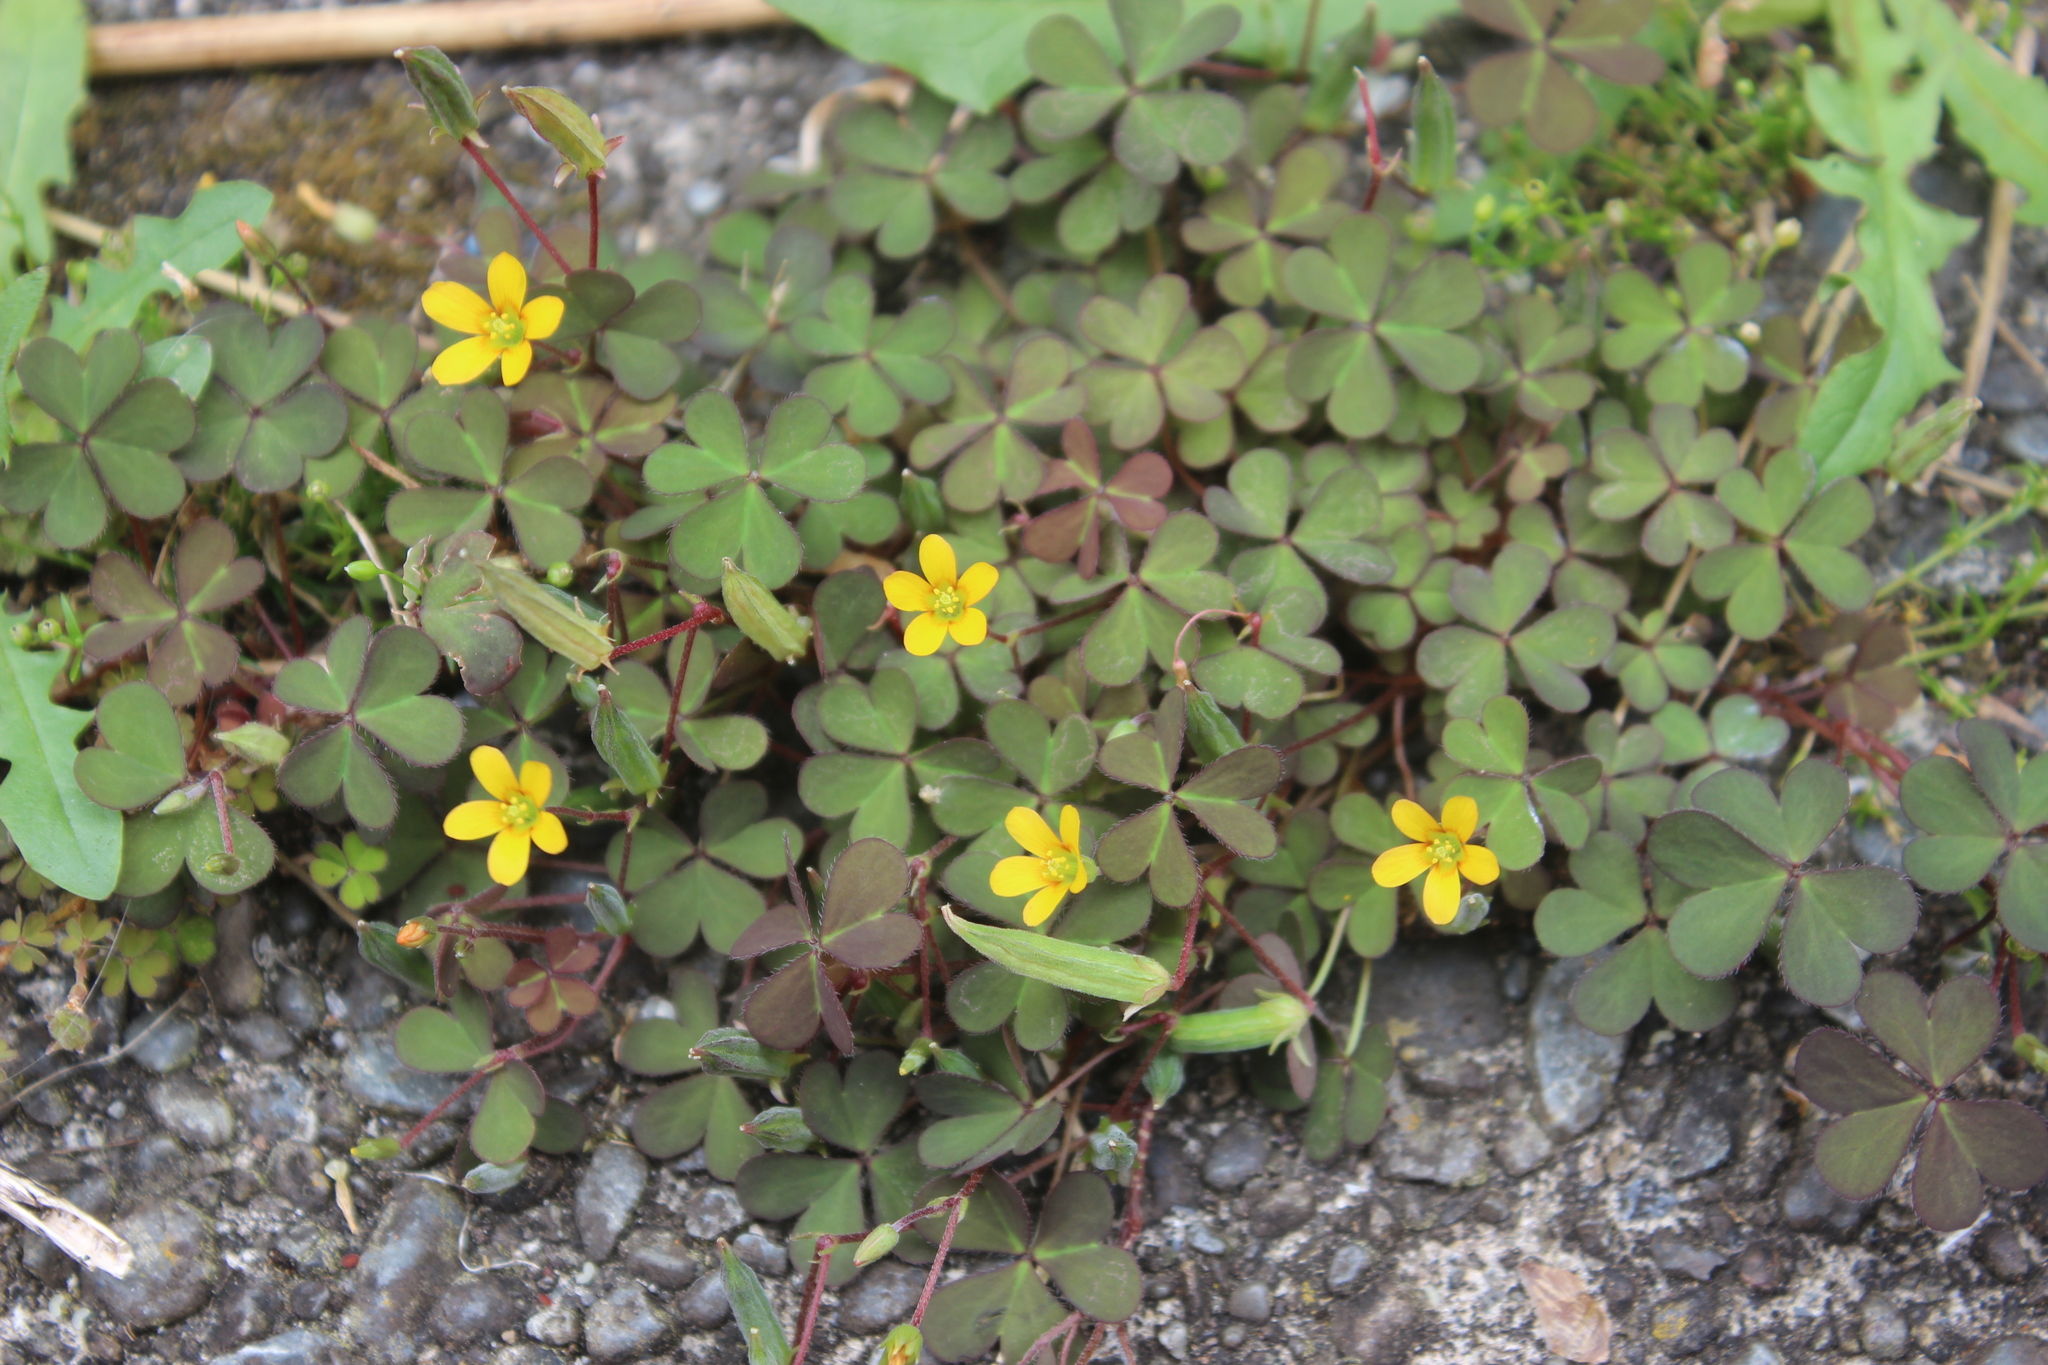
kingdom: Plantae
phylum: Tracheophyta
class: Magnoliopsida
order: Oxalidales
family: Oxalidaceae
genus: Oxalis
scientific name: Oxalis corniculata
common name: Procumbent yellow-sorrel
